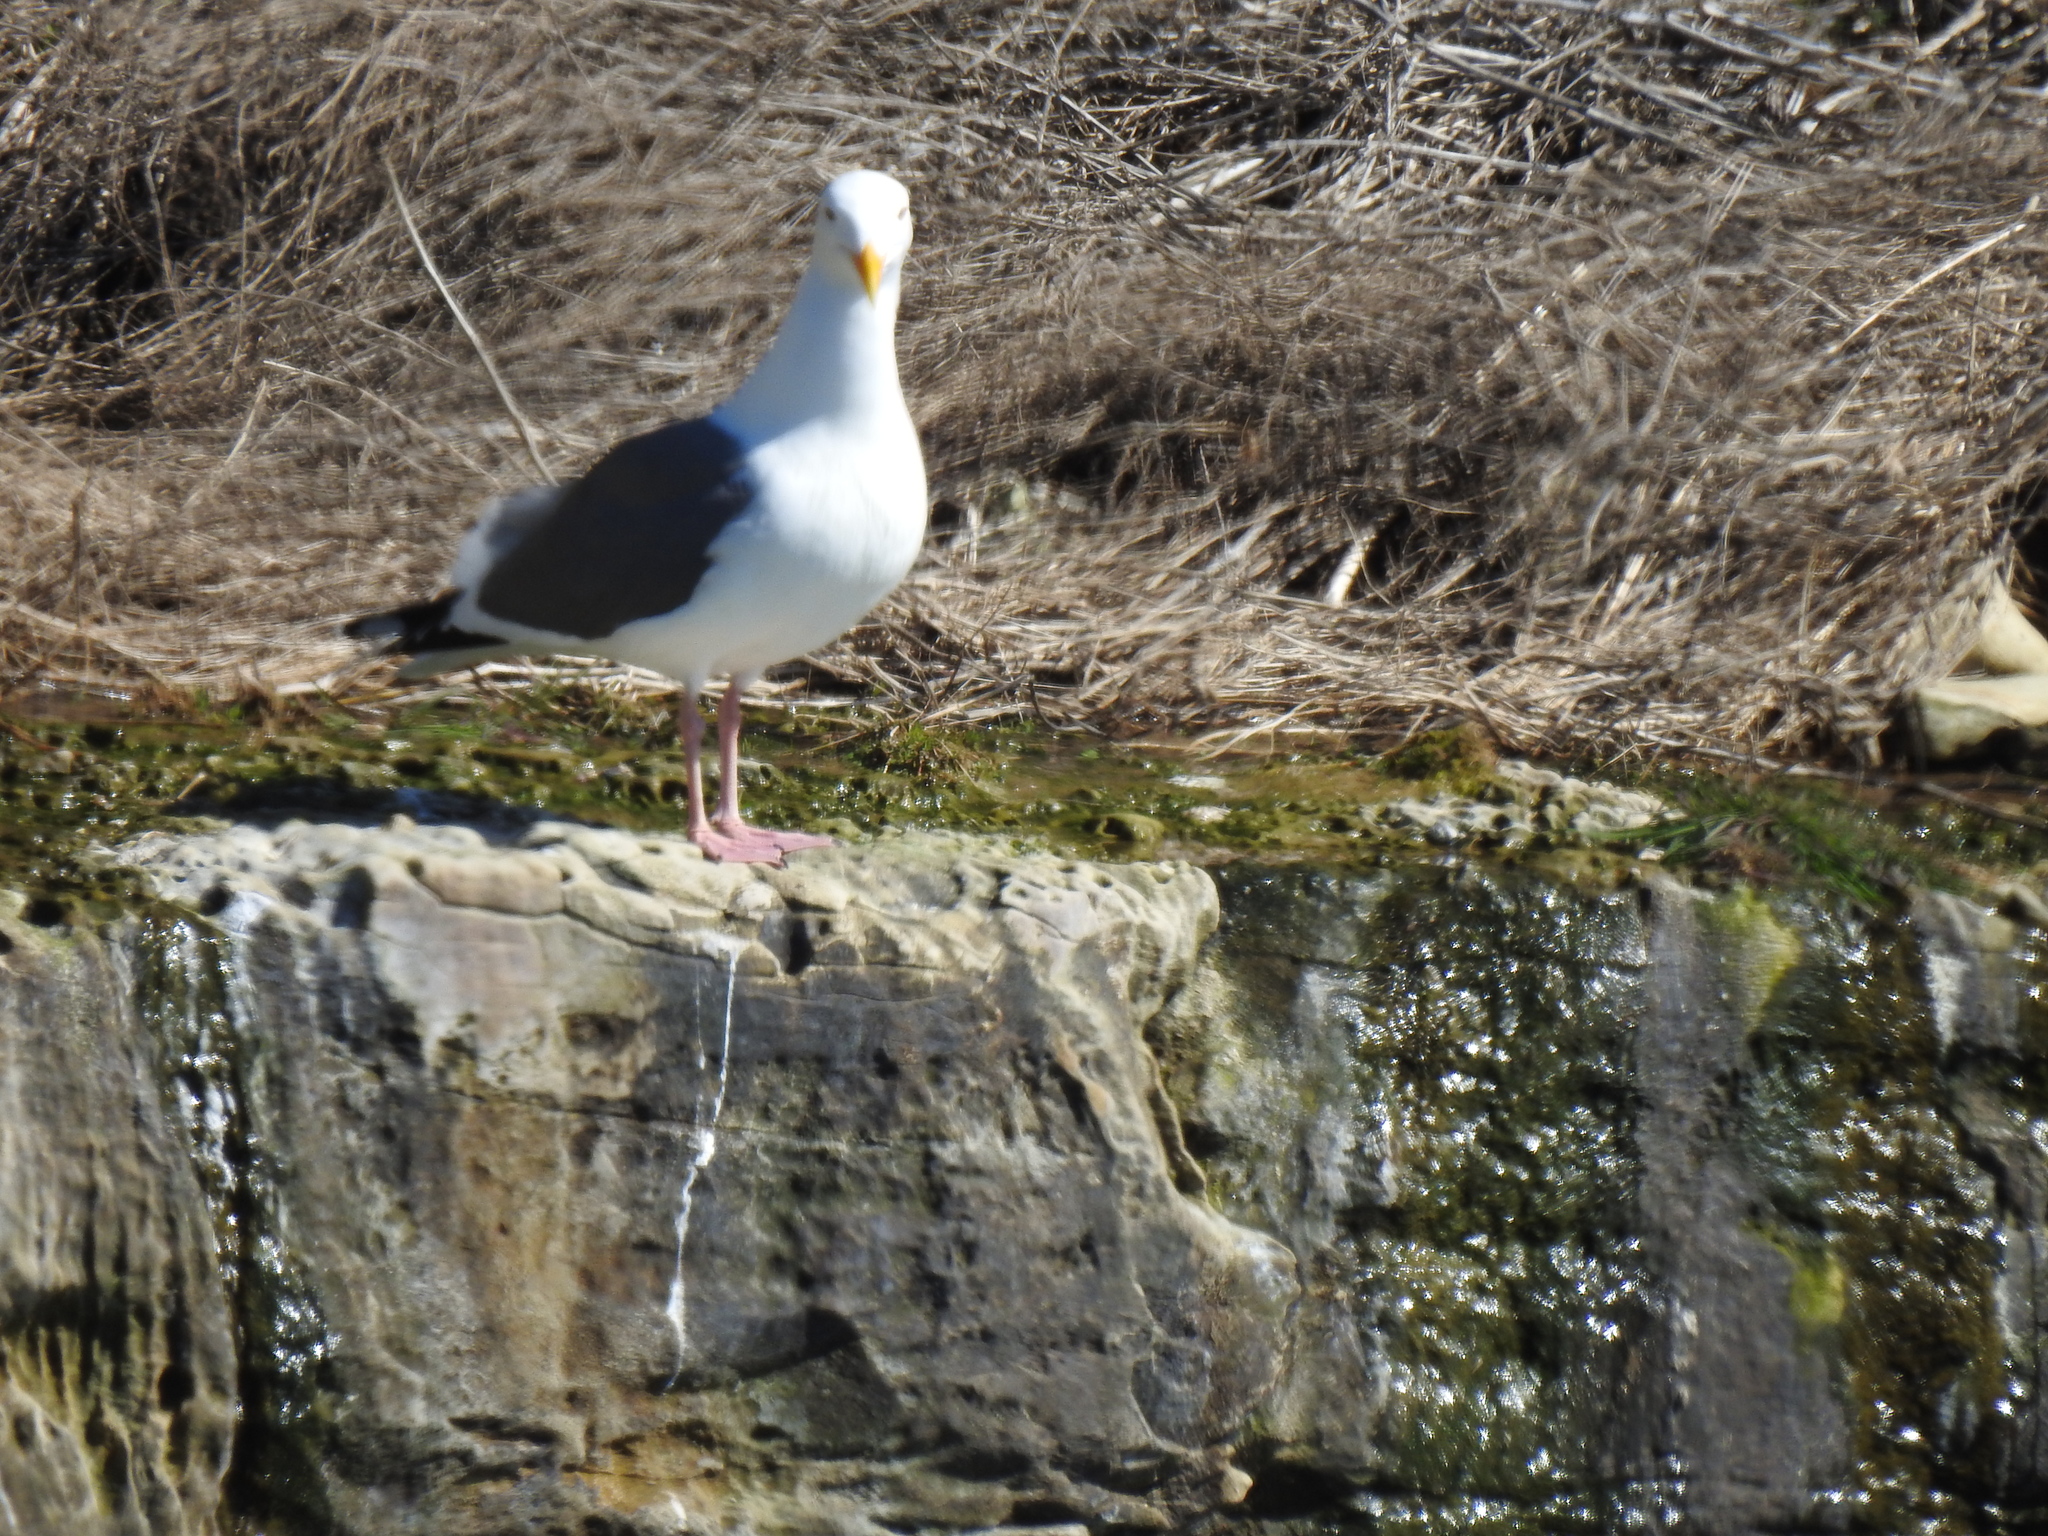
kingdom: Animalia
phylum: Chordata
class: Aves
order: Charadriiformes
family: Laridae
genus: Larus
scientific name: Larus occidentalis
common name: Western gull
